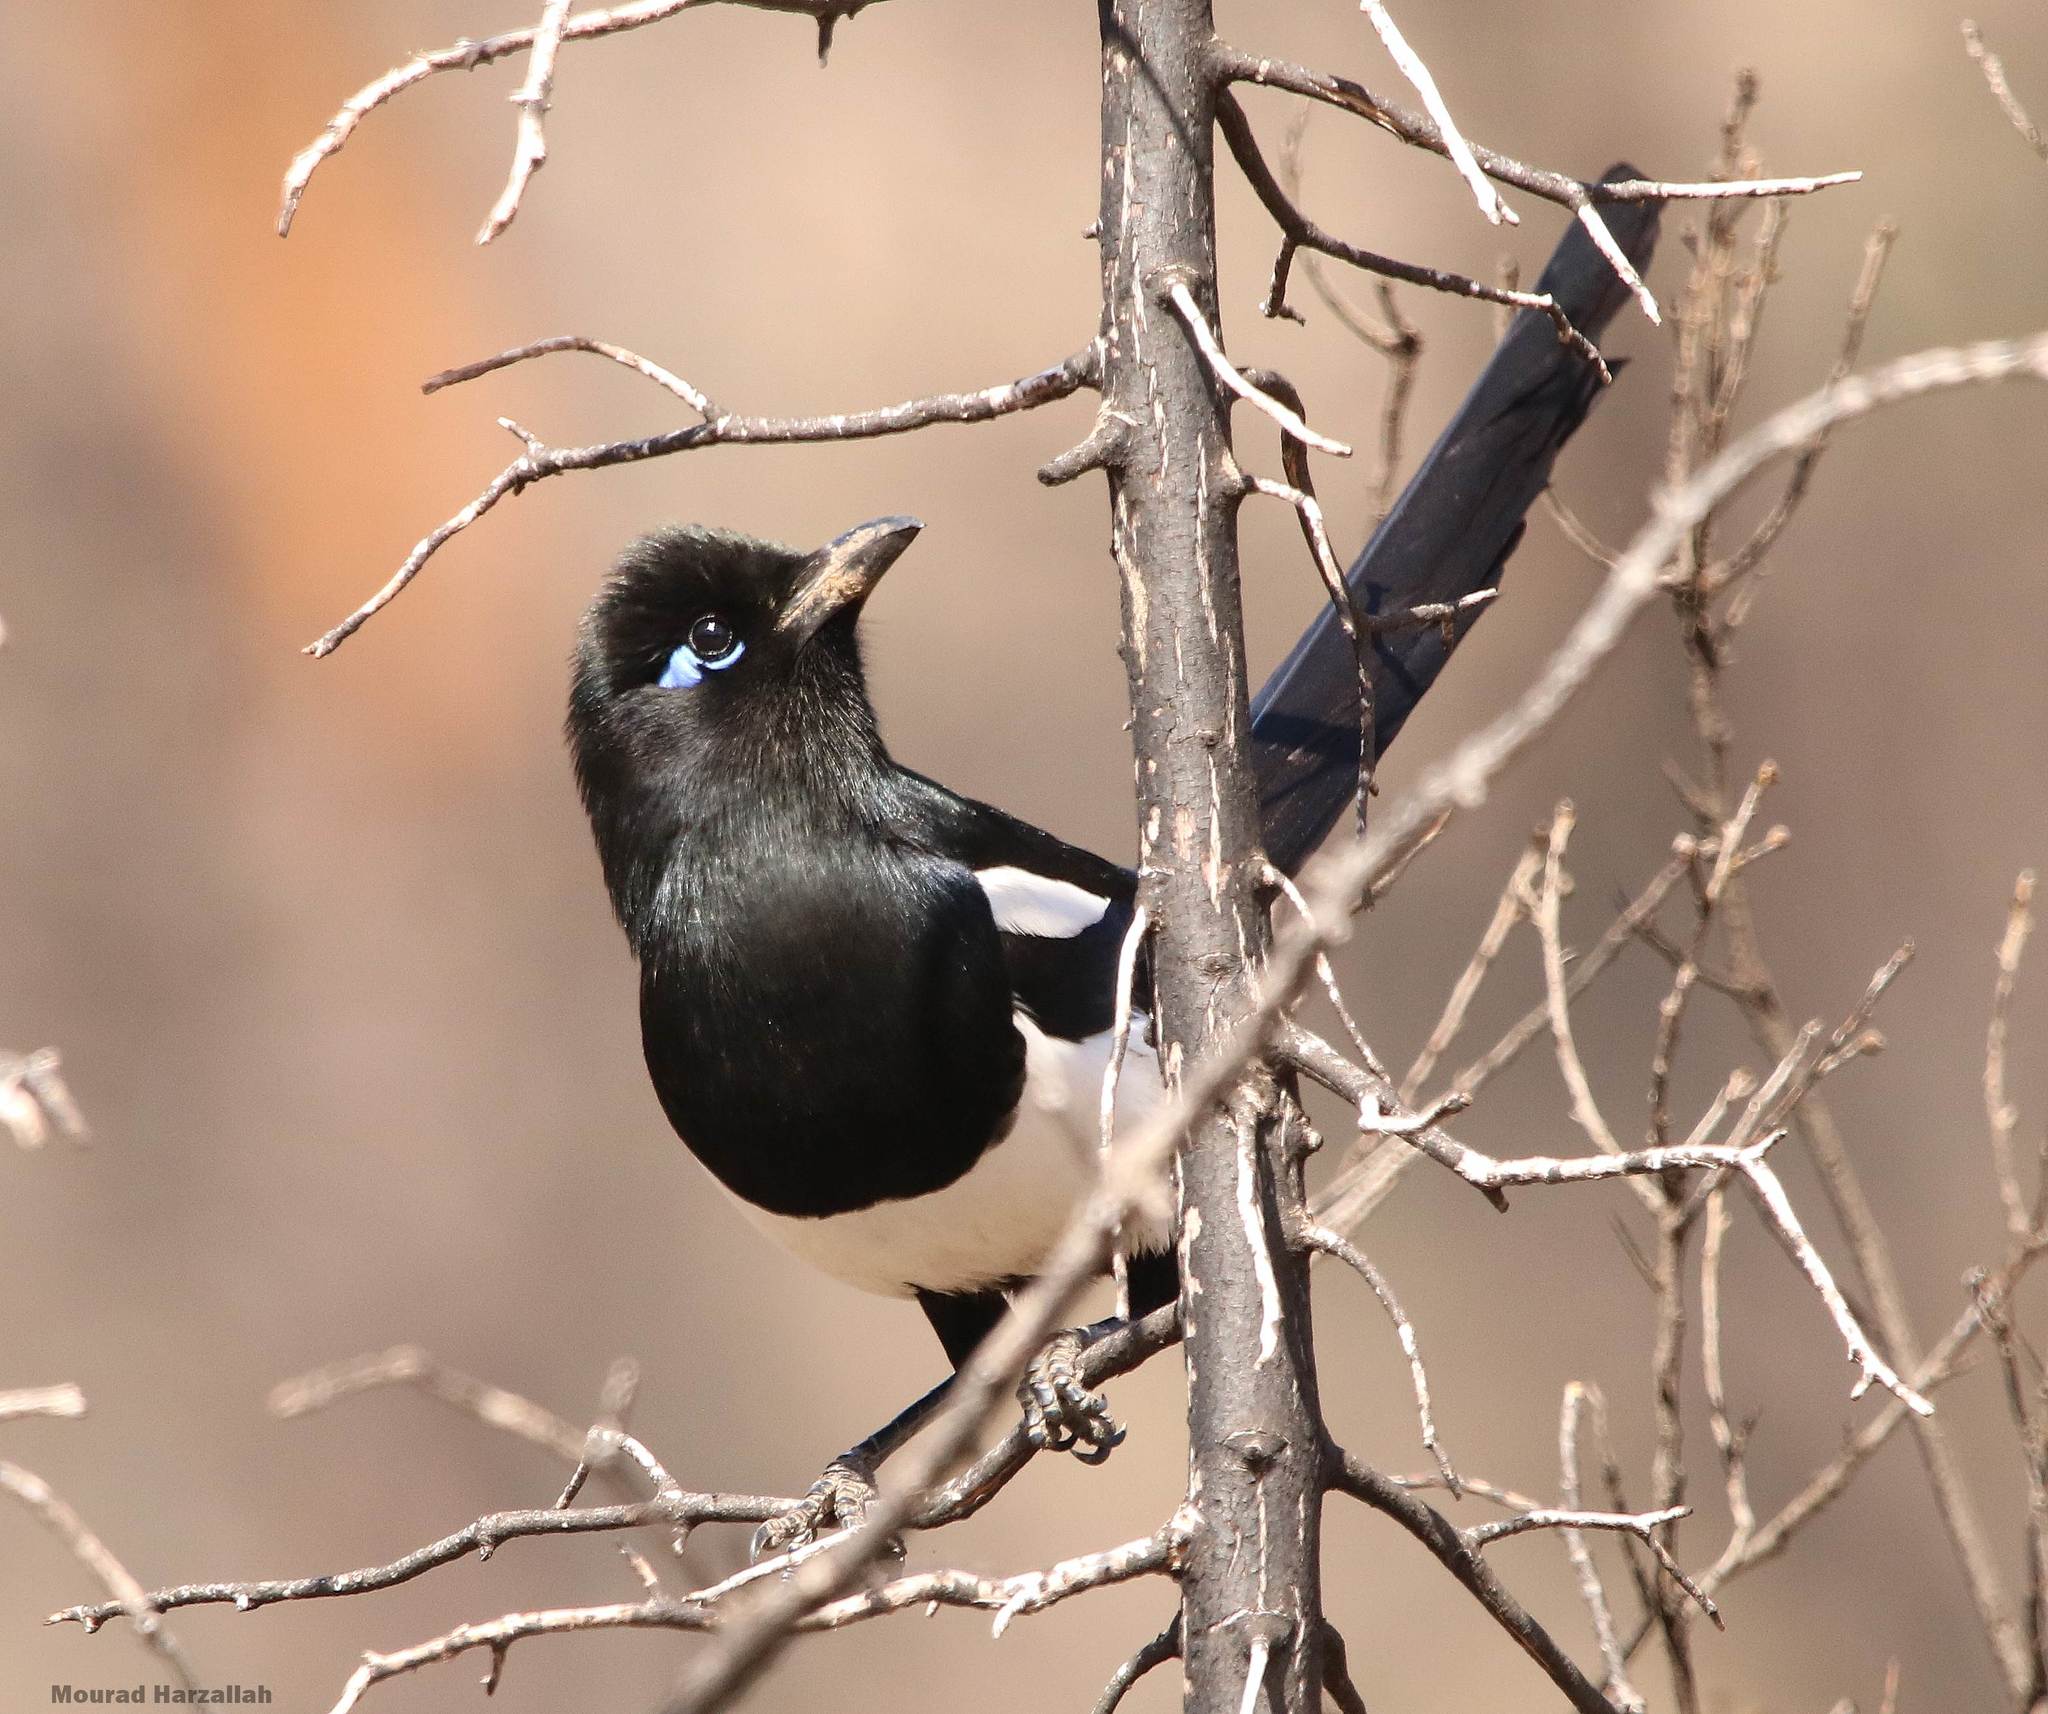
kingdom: Animalia
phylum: Chordata
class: Aves
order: Passeriformes
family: Corvidae
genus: Pica
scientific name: Pica mauritanica
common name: Maghreb magpie
